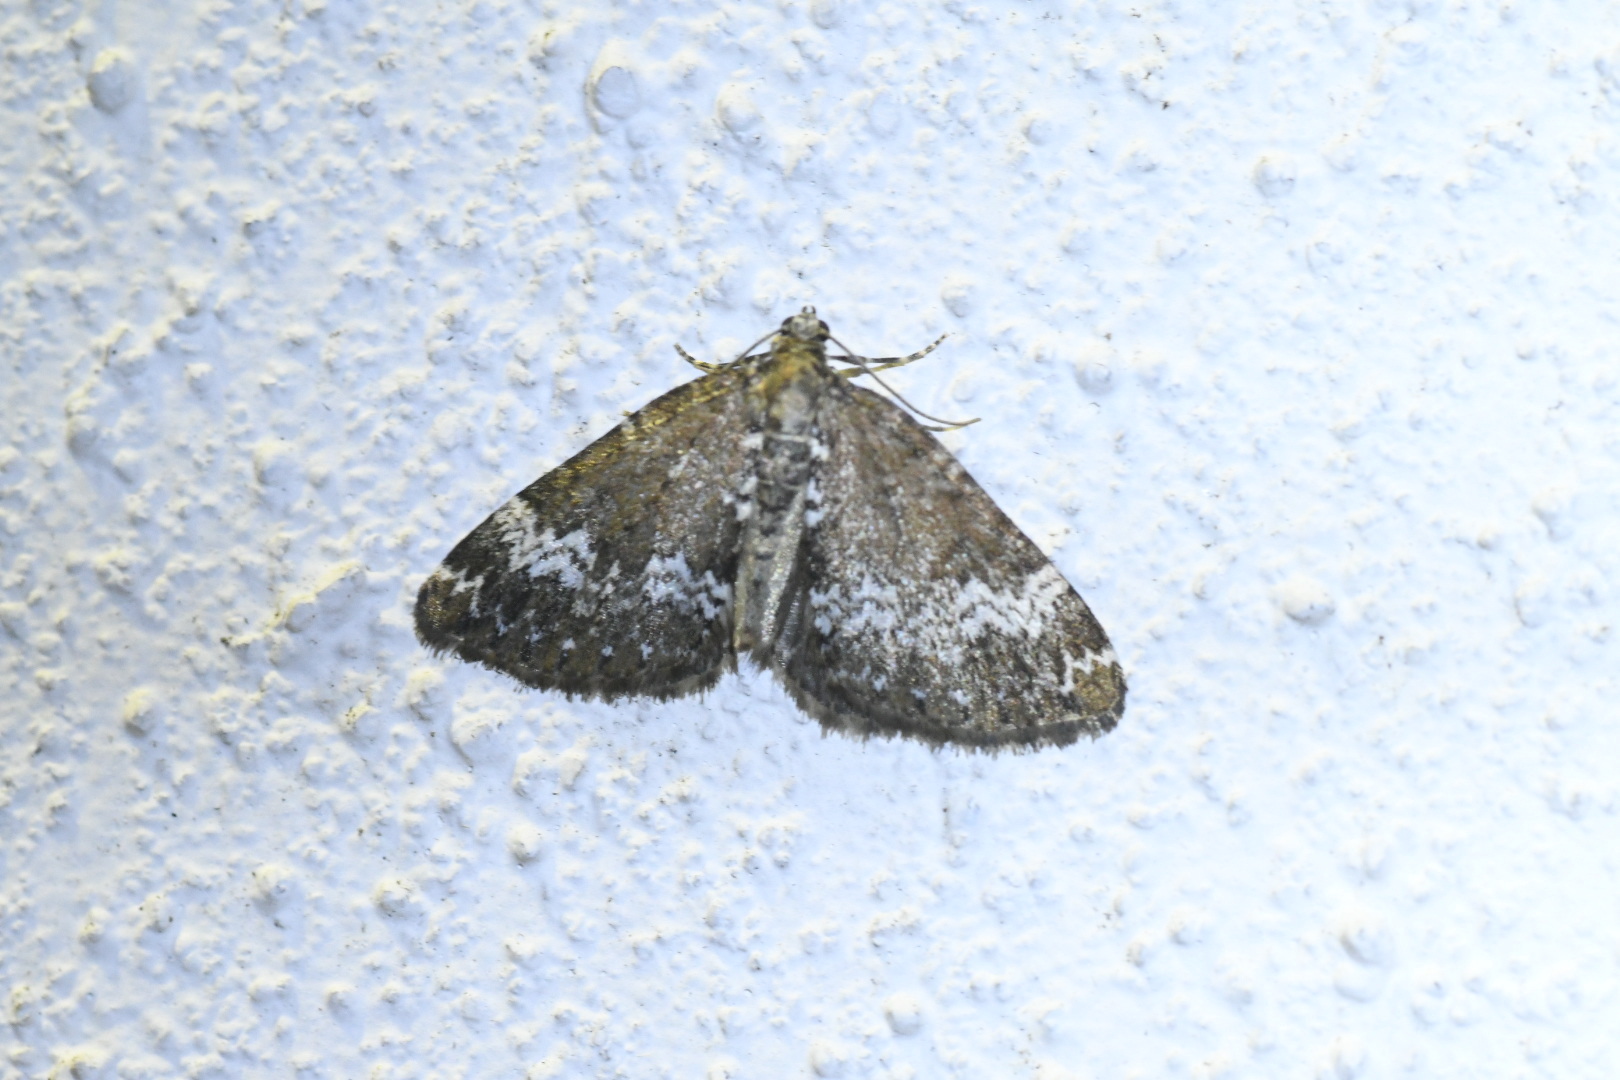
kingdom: Animalia
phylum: Arthropoda
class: Insecta
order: Lepidoptera
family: Geometridae
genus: Perizoma
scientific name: Perizoma
